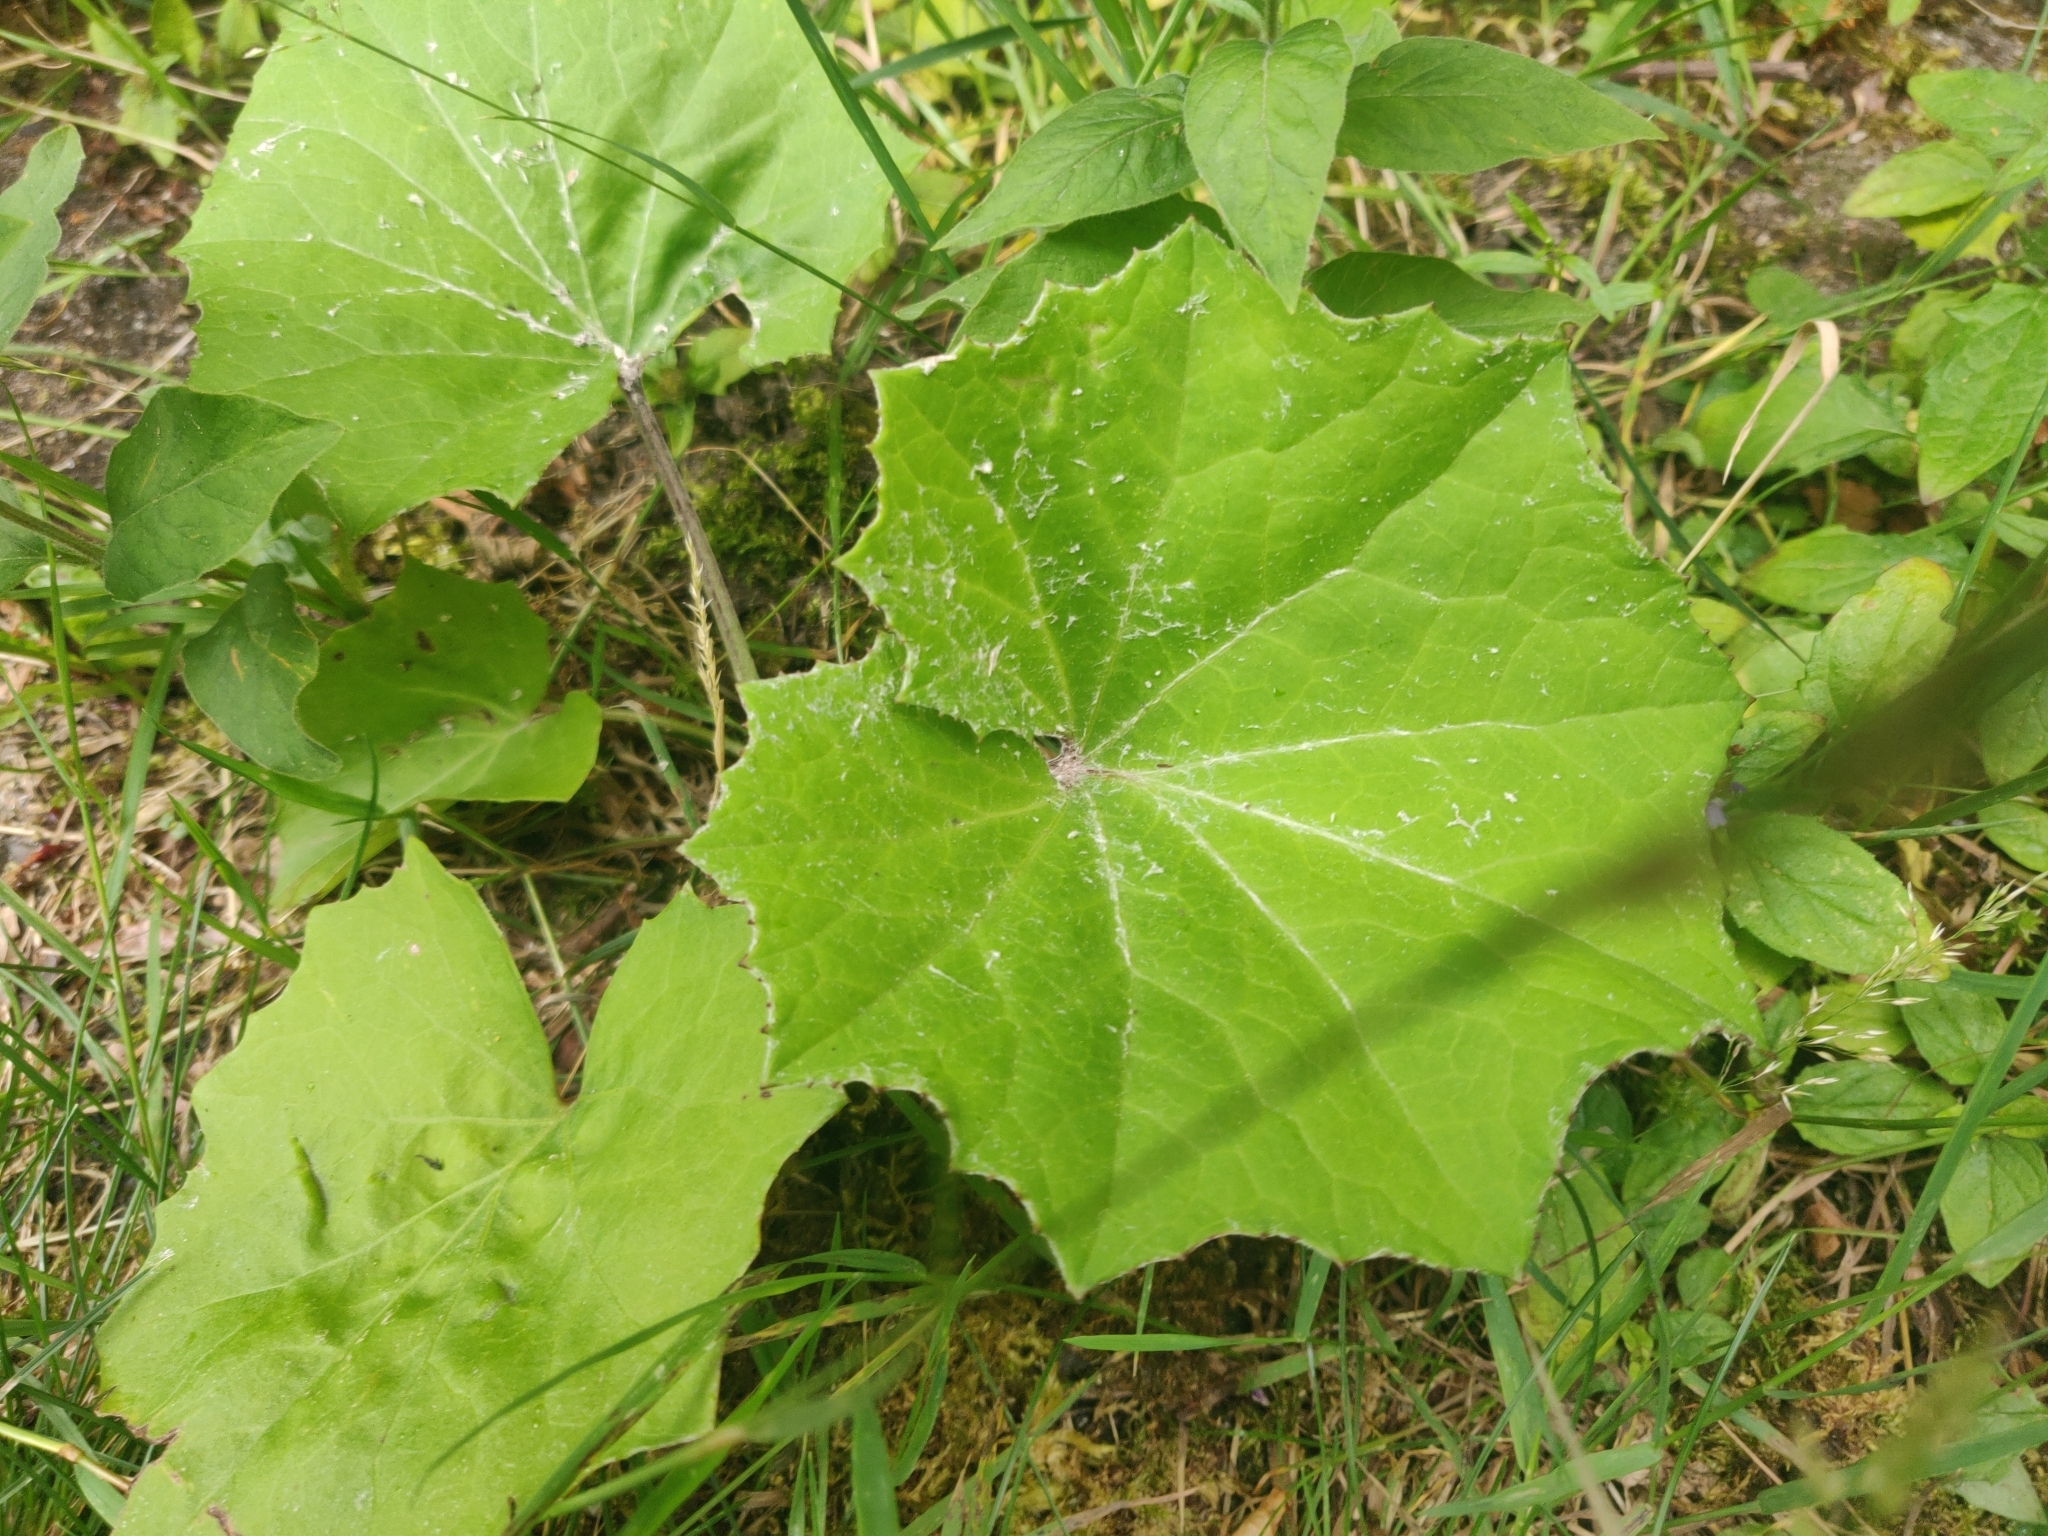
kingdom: Plantae
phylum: Tracheophyta
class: Magnoliopsida
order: Asterales
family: Asteraceae
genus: Tussilago
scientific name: Tussilago farfara
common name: Coltsfoot
